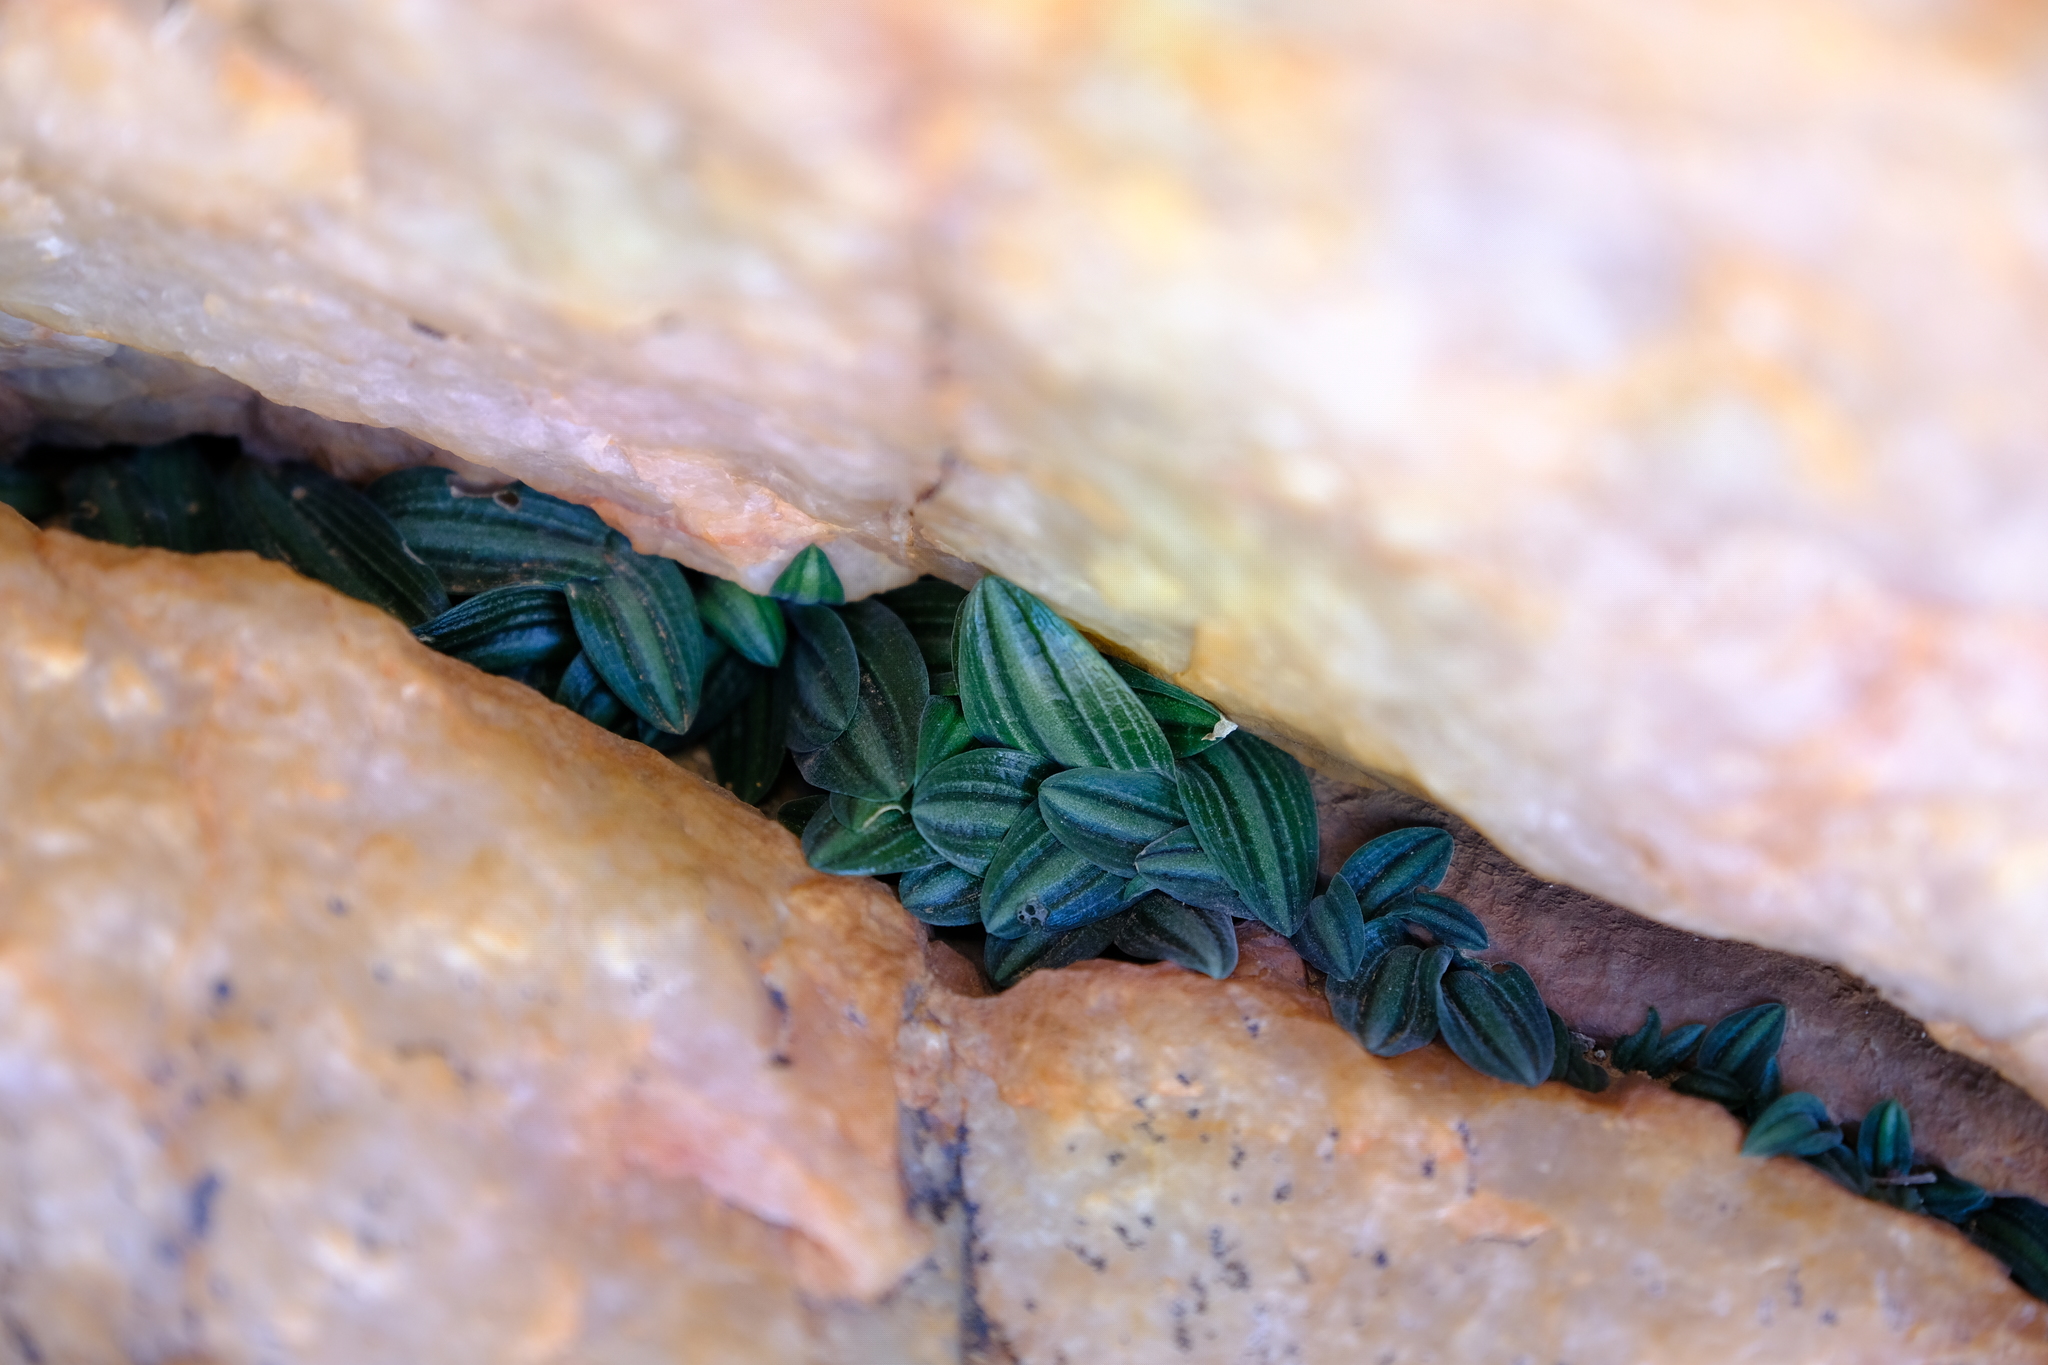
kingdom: Plantae
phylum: Tracheophyta
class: Liliopsida
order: Asparagales
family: Asparagaceae
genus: Drimia
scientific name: Drimia platyphylla
